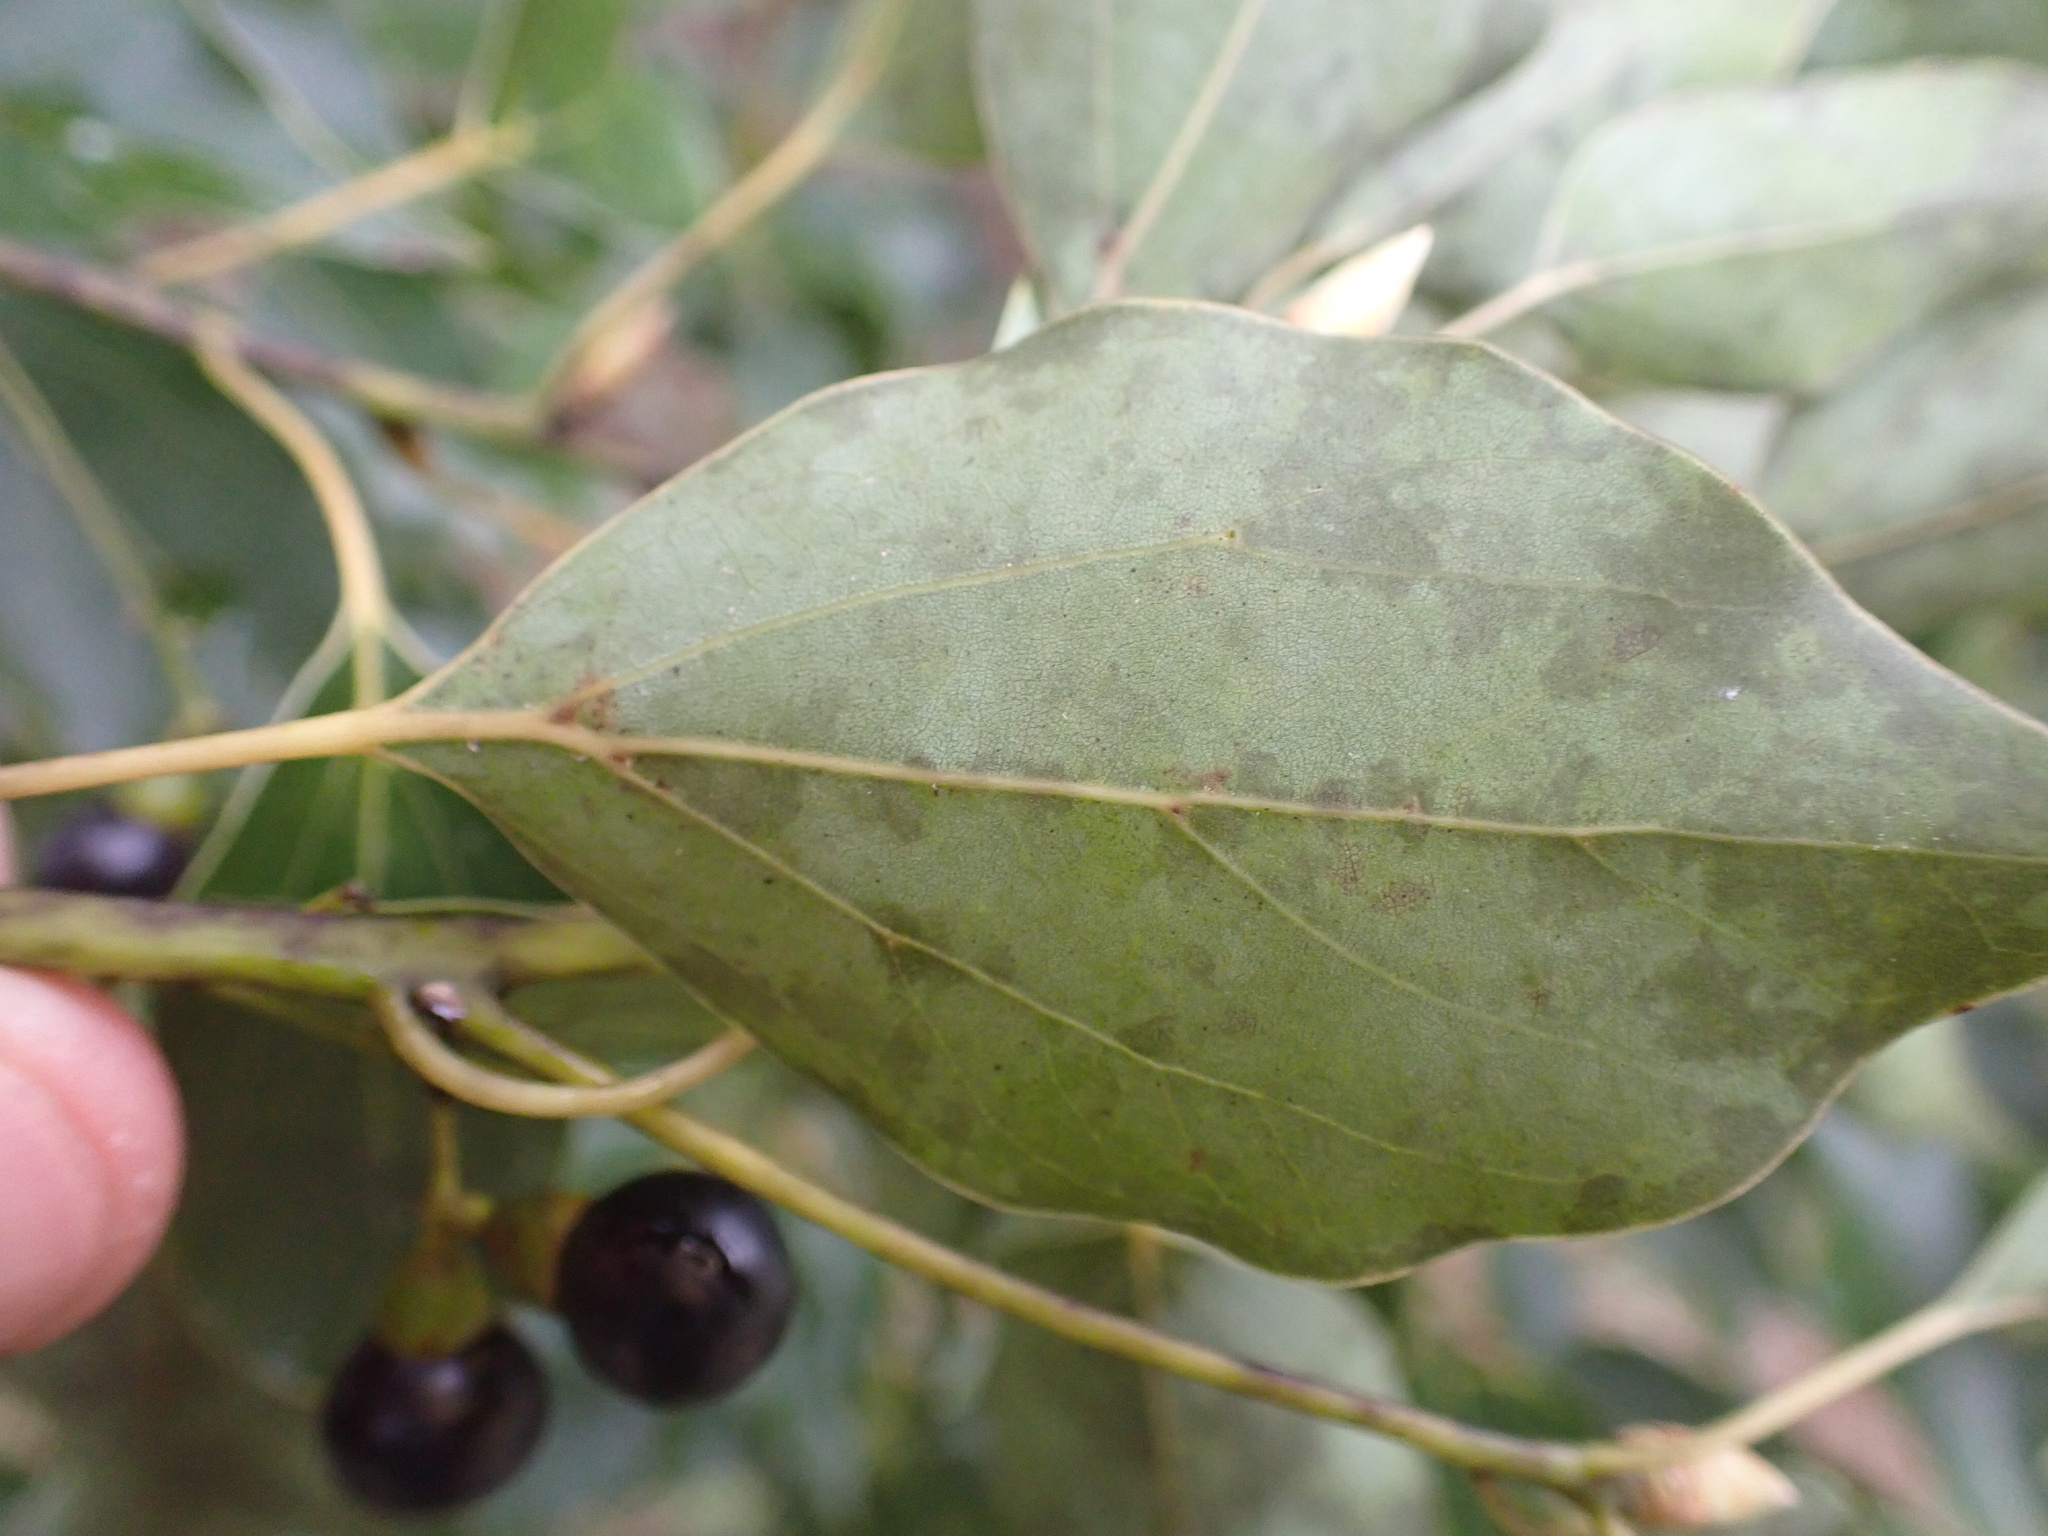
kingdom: Plantae
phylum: Tracheophyta
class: Magnoliopsida
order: Laurales
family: Lauraceae
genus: Cinnamomum
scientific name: Cinnamomum camphora
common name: Camphortree
